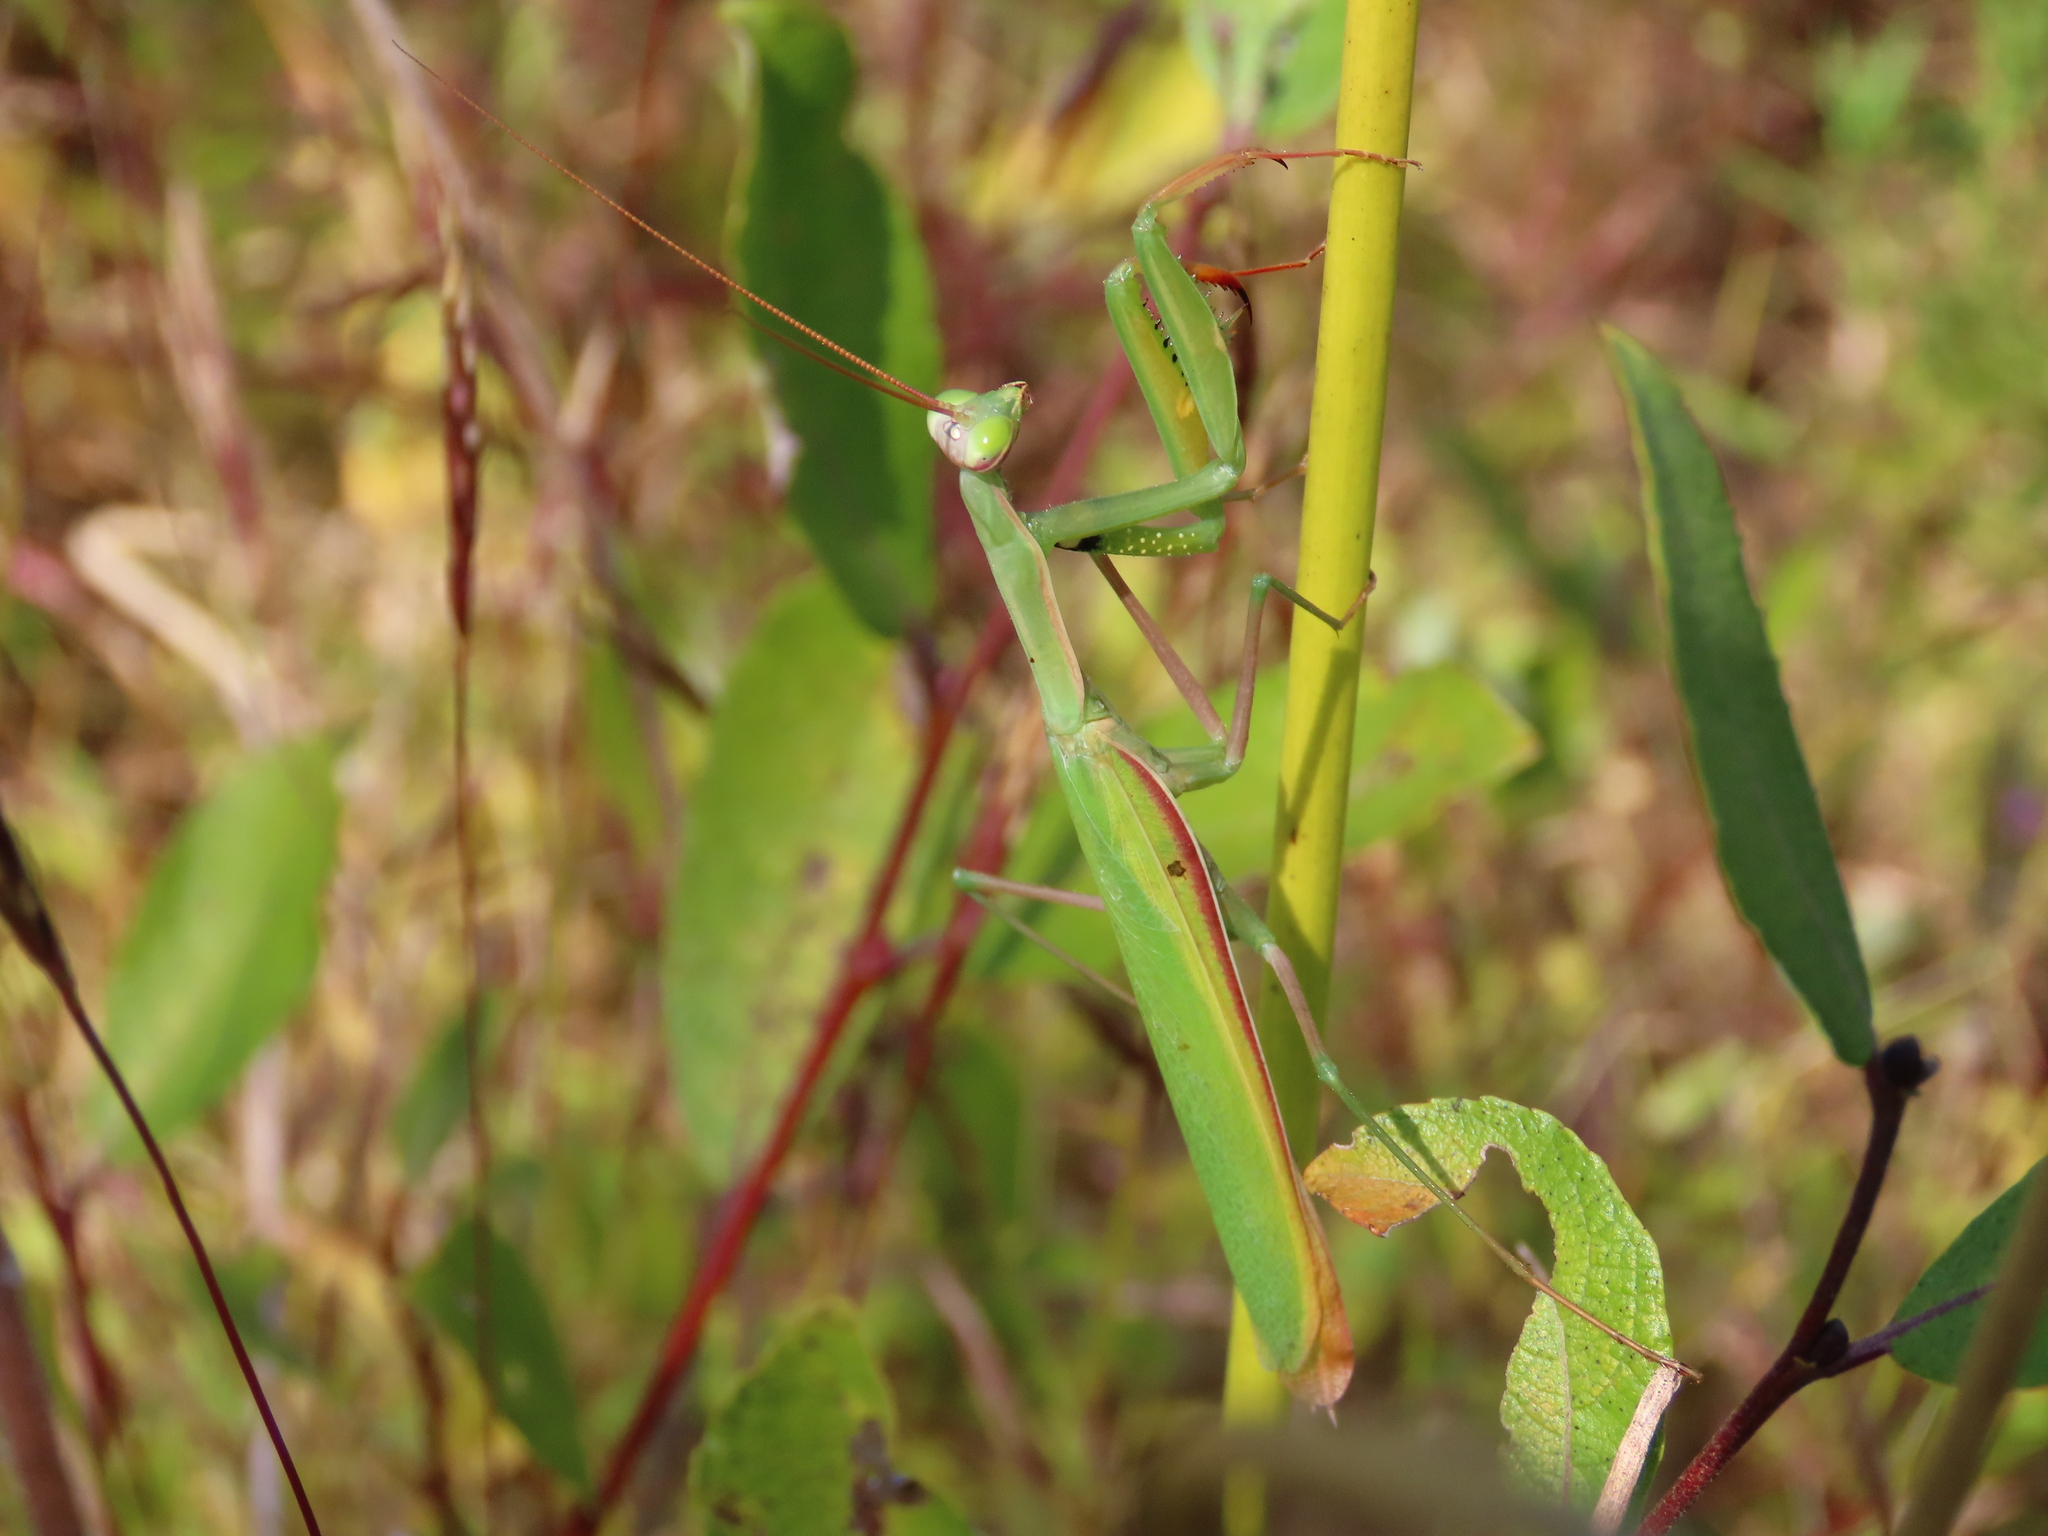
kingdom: Animalia
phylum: Arthropoda
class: Insecta
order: Mantodea
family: Mantidae
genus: Mantis
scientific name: Mantis religiosa
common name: Praying mantis
